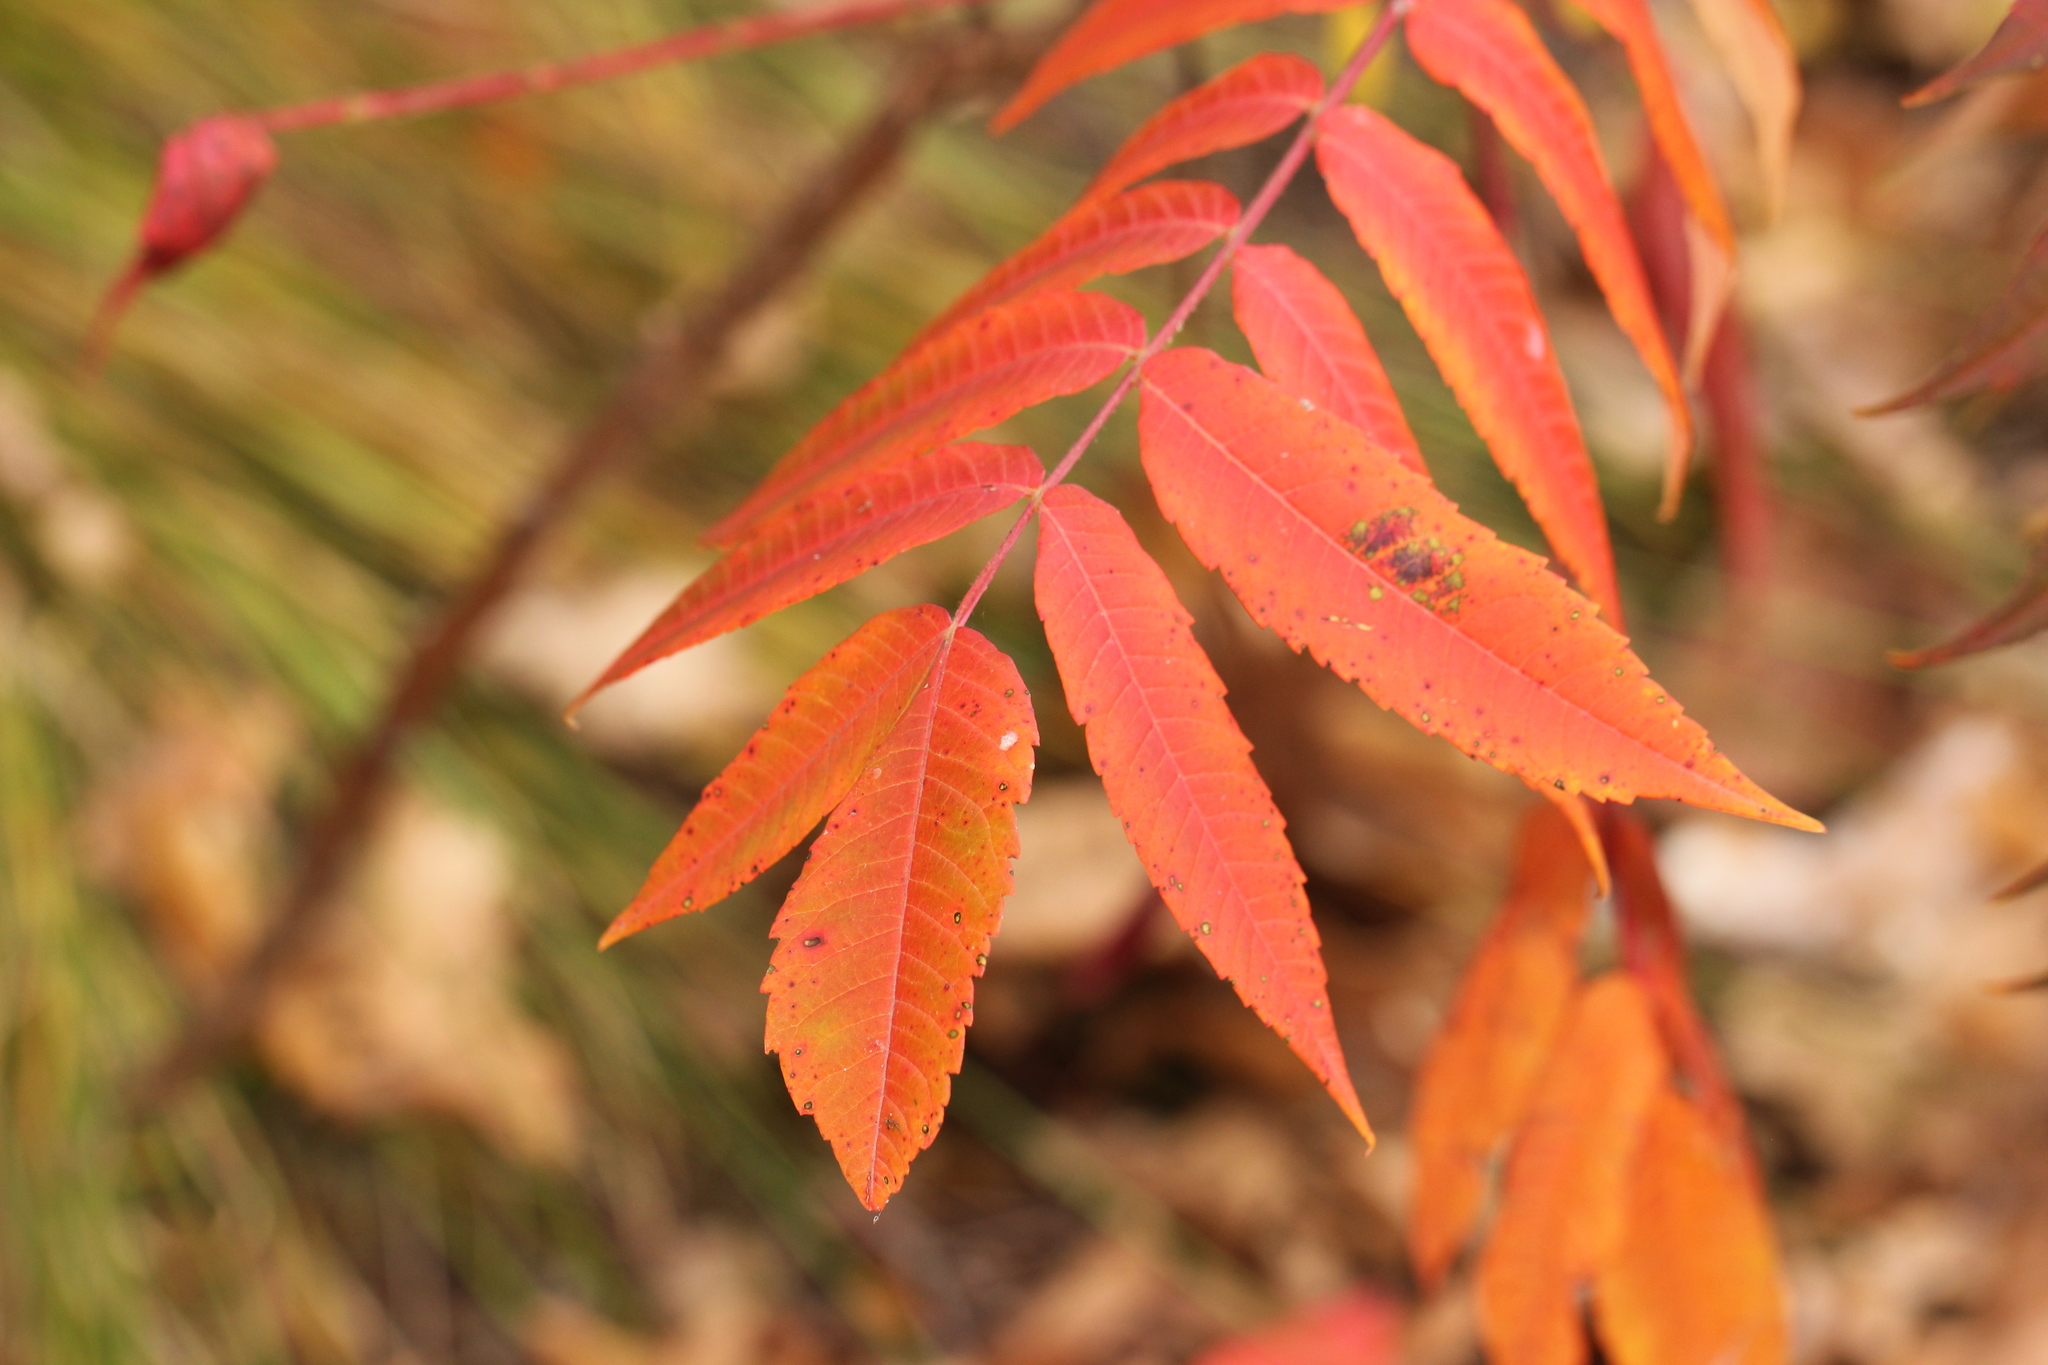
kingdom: Plantae
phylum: Tracheophyta
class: Magnoliopsida
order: Sapindales
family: Anacardiaceae
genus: Rhus
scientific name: Rhus typhina
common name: Staghorn sumac
